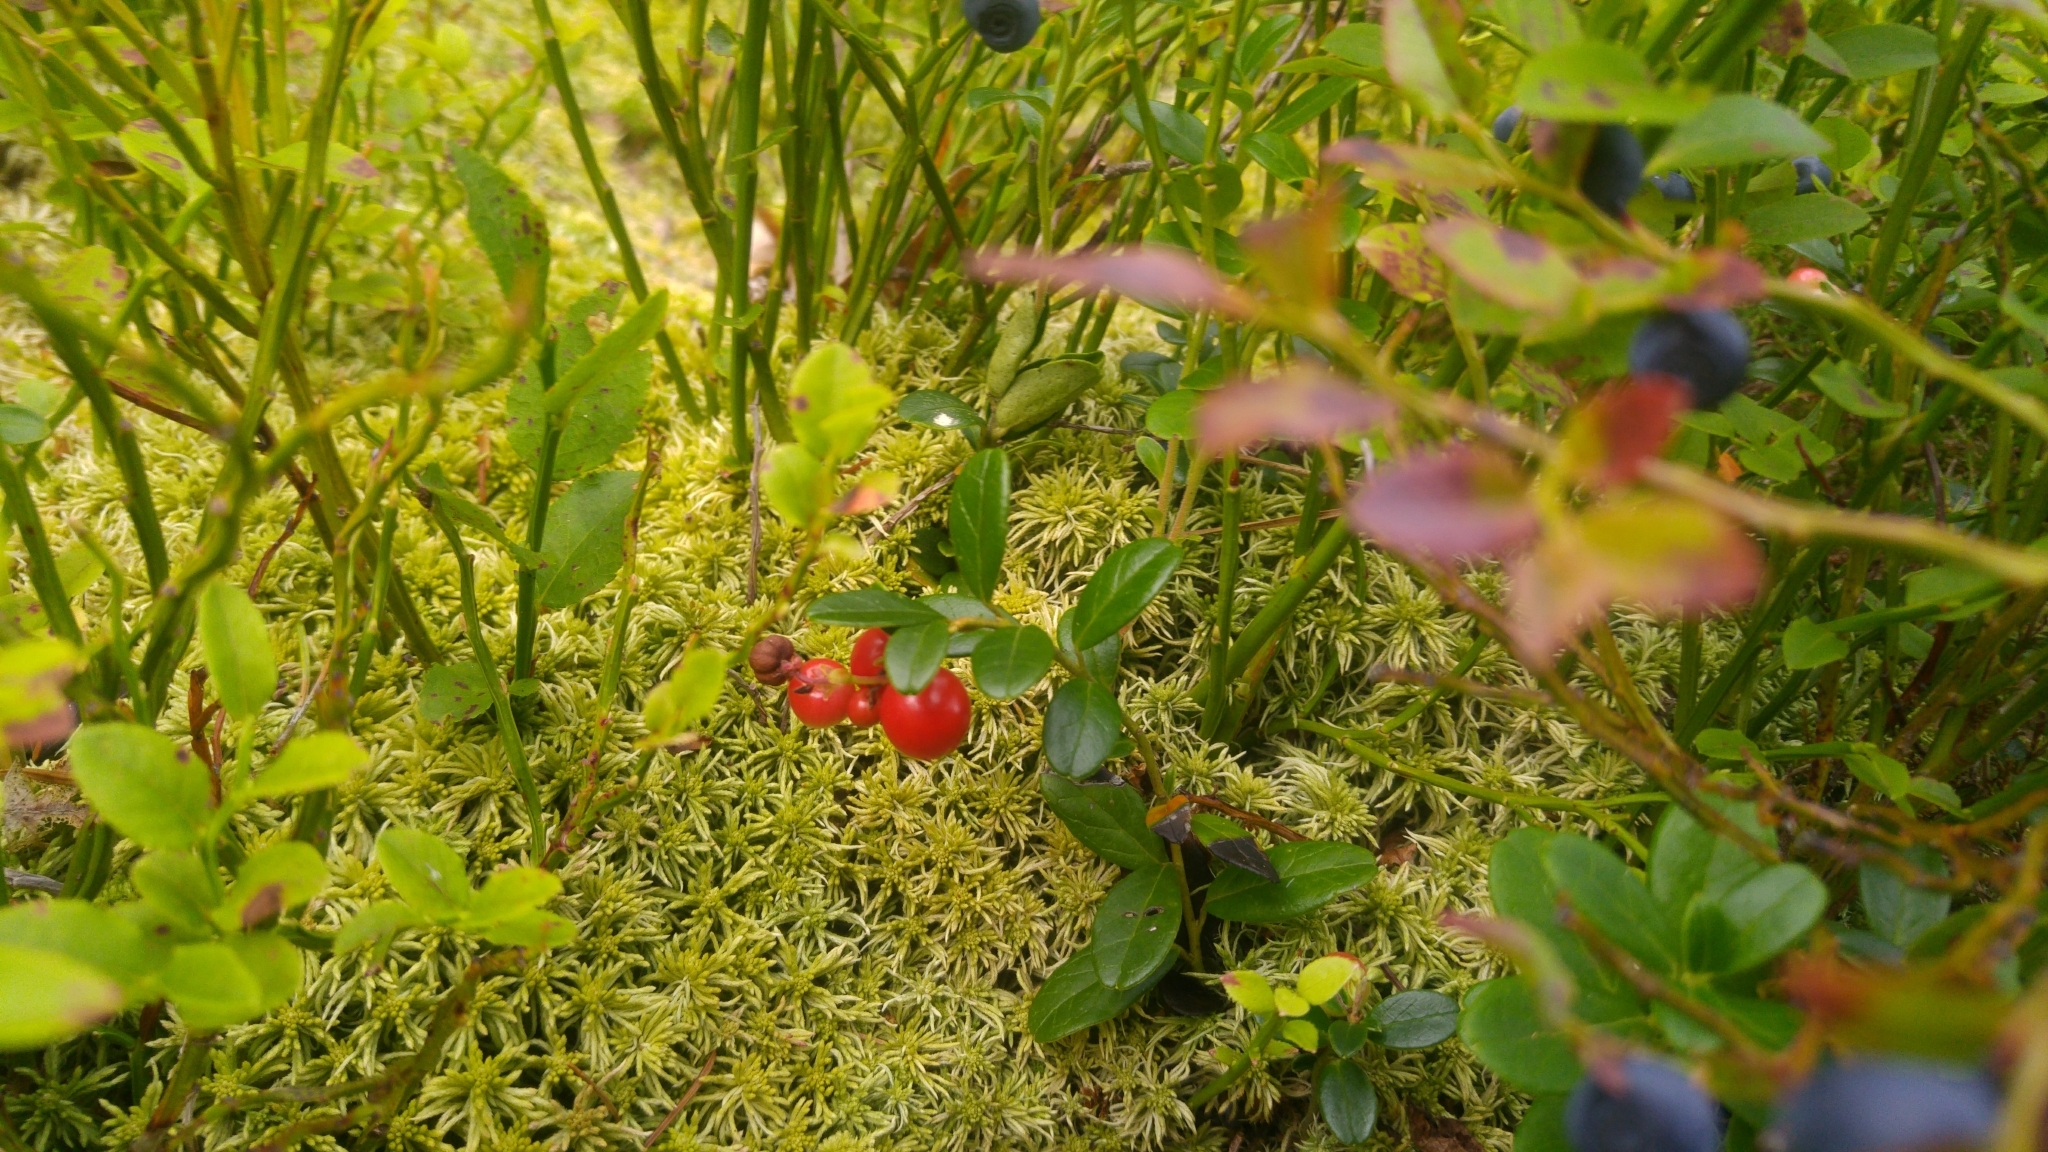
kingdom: Plantae
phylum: Tracheophyta
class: Magnoliopsida
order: Ericales
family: Ericaceae
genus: Vaccinium
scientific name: Vaccinium vitis-idaea
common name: Cowberry
